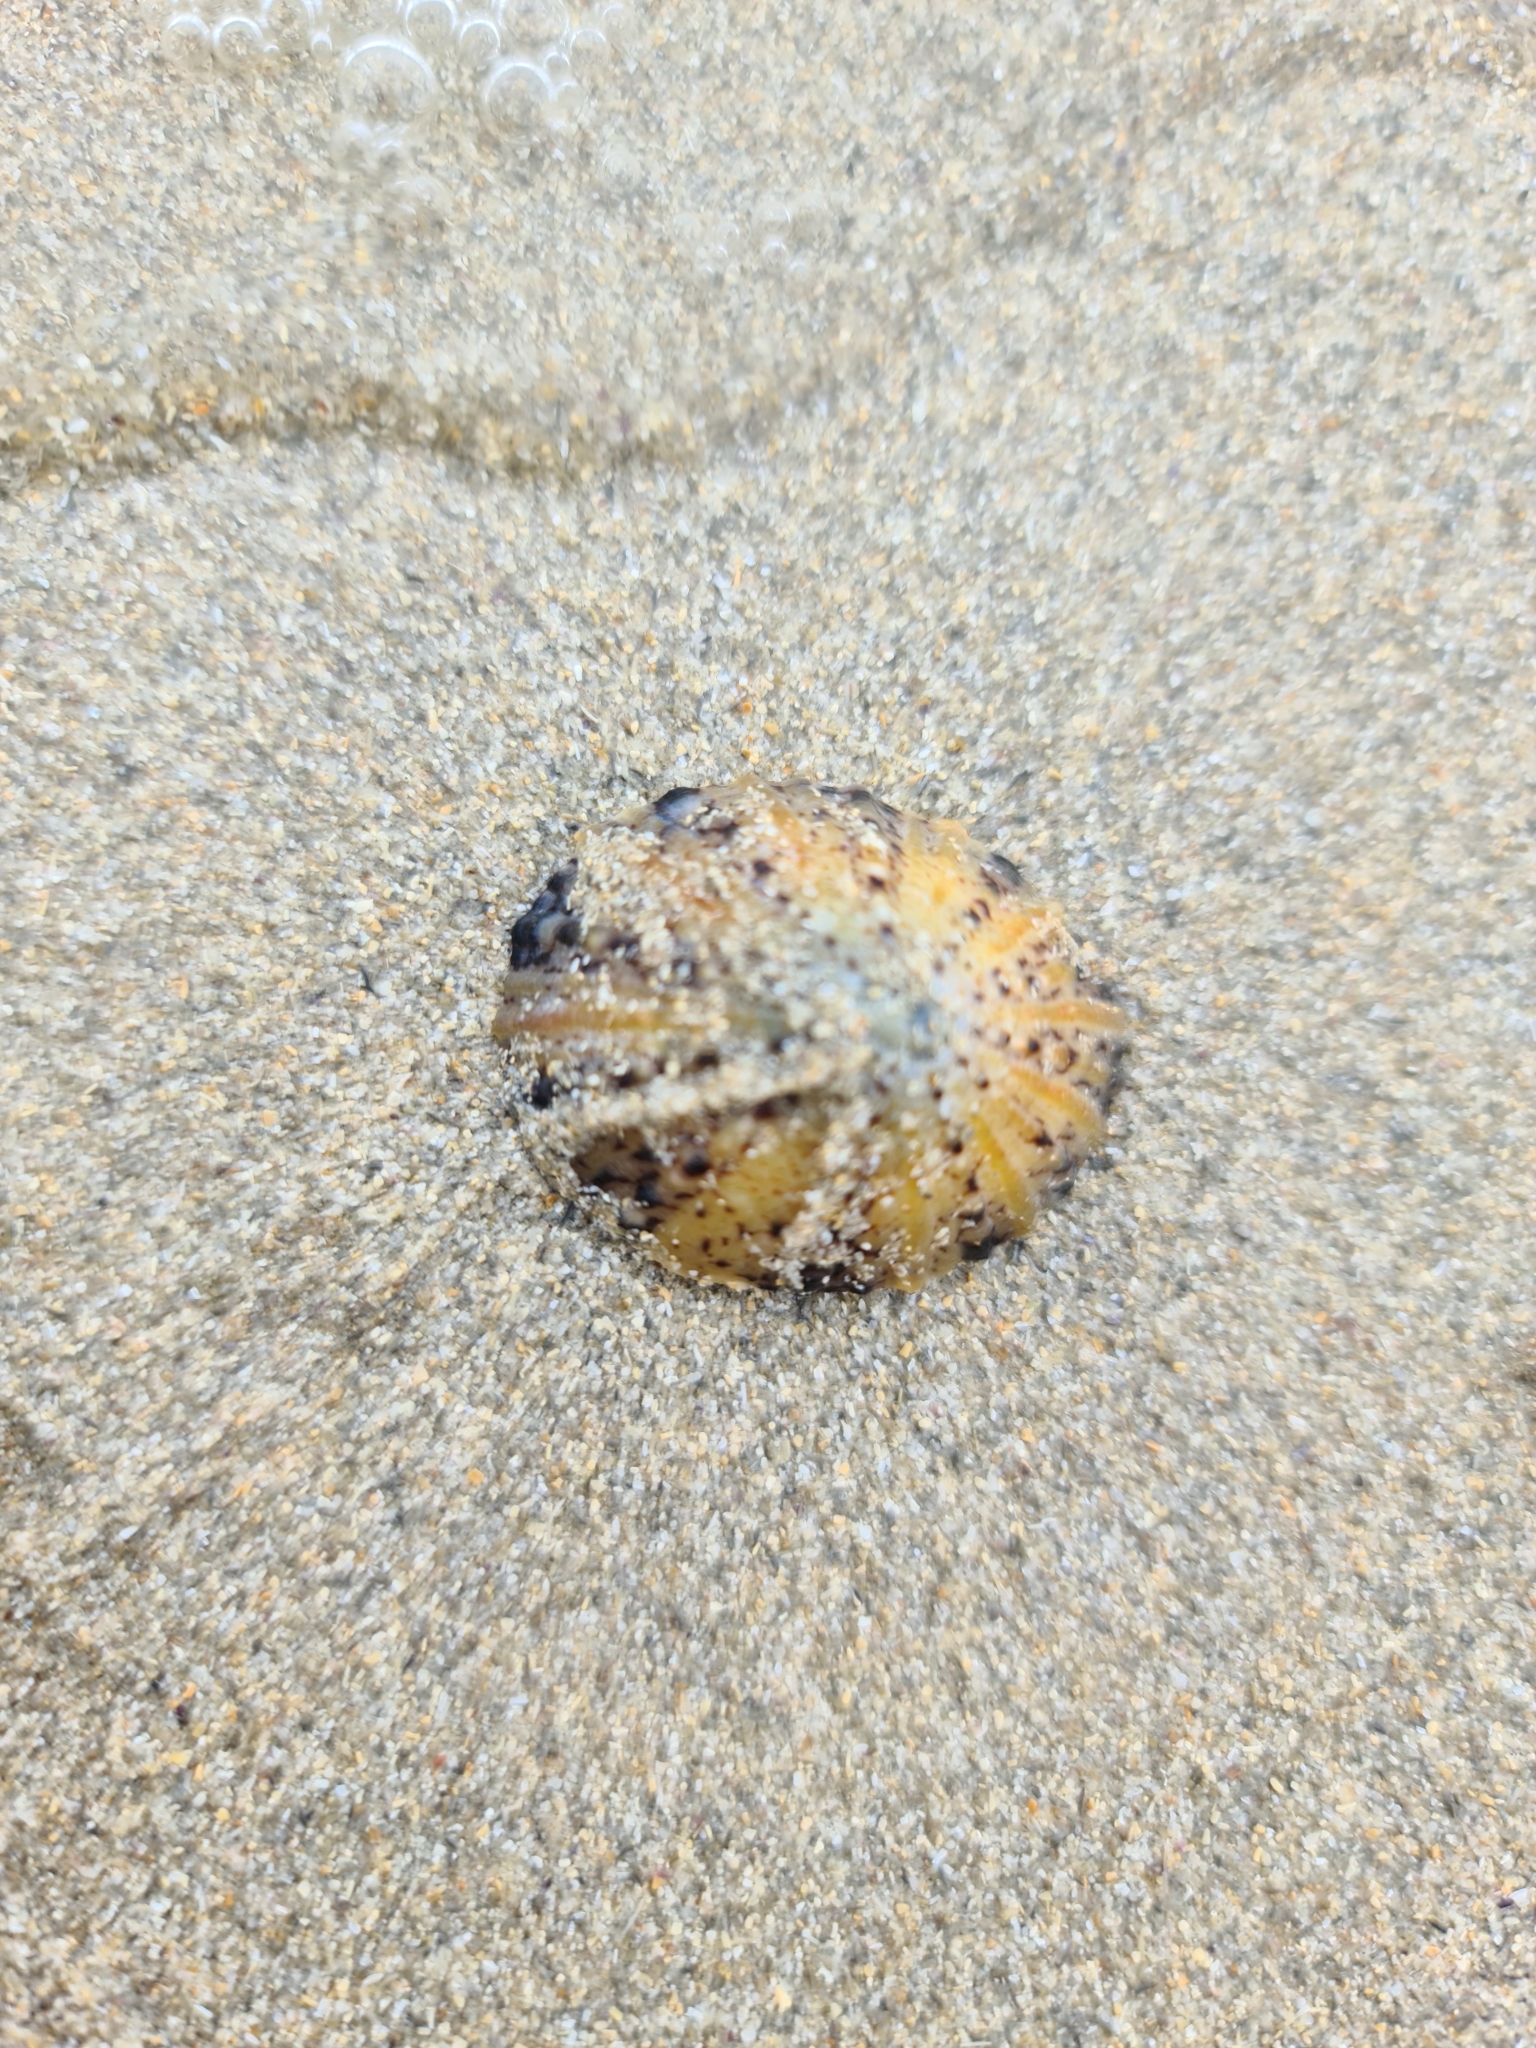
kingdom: Animalia
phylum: Mollusca
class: Gastropoda
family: Nacellidae
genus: Cellana
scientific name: Cellana tramoserica
